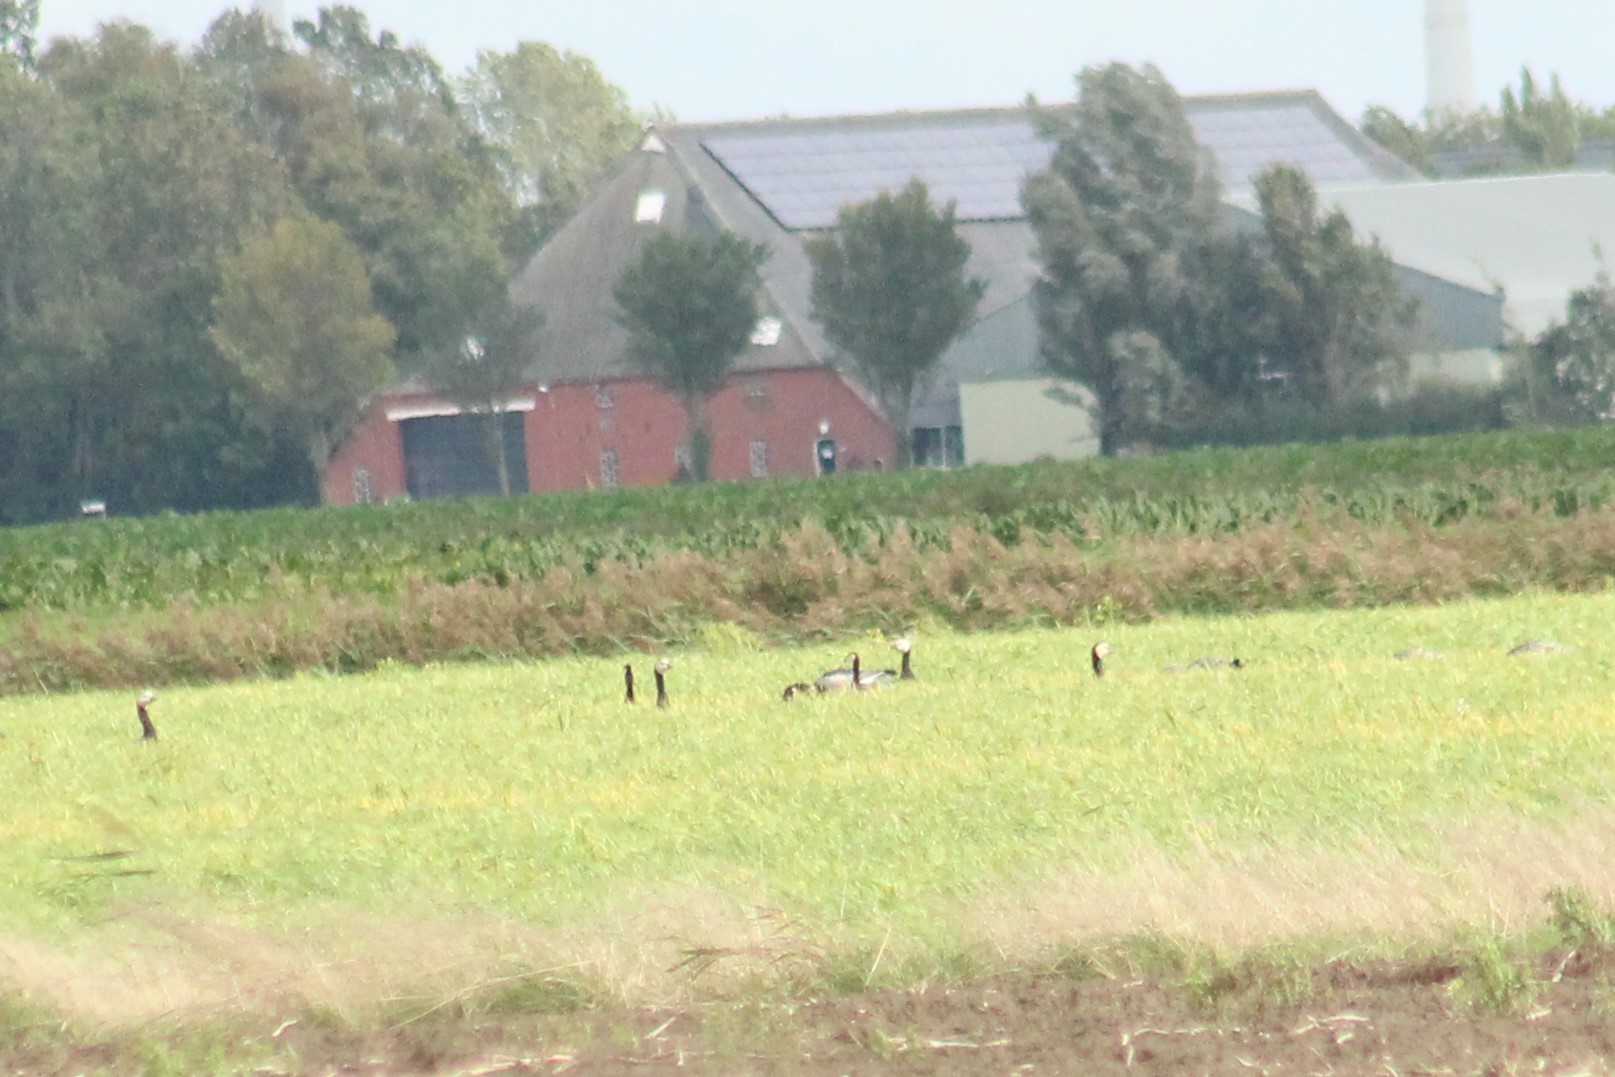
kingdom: Animalia
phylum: Chordata
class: Aves
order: Anseriformes
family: Anatidae
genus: Branta
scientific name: Branta leucopsis
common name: Barnacle goose
